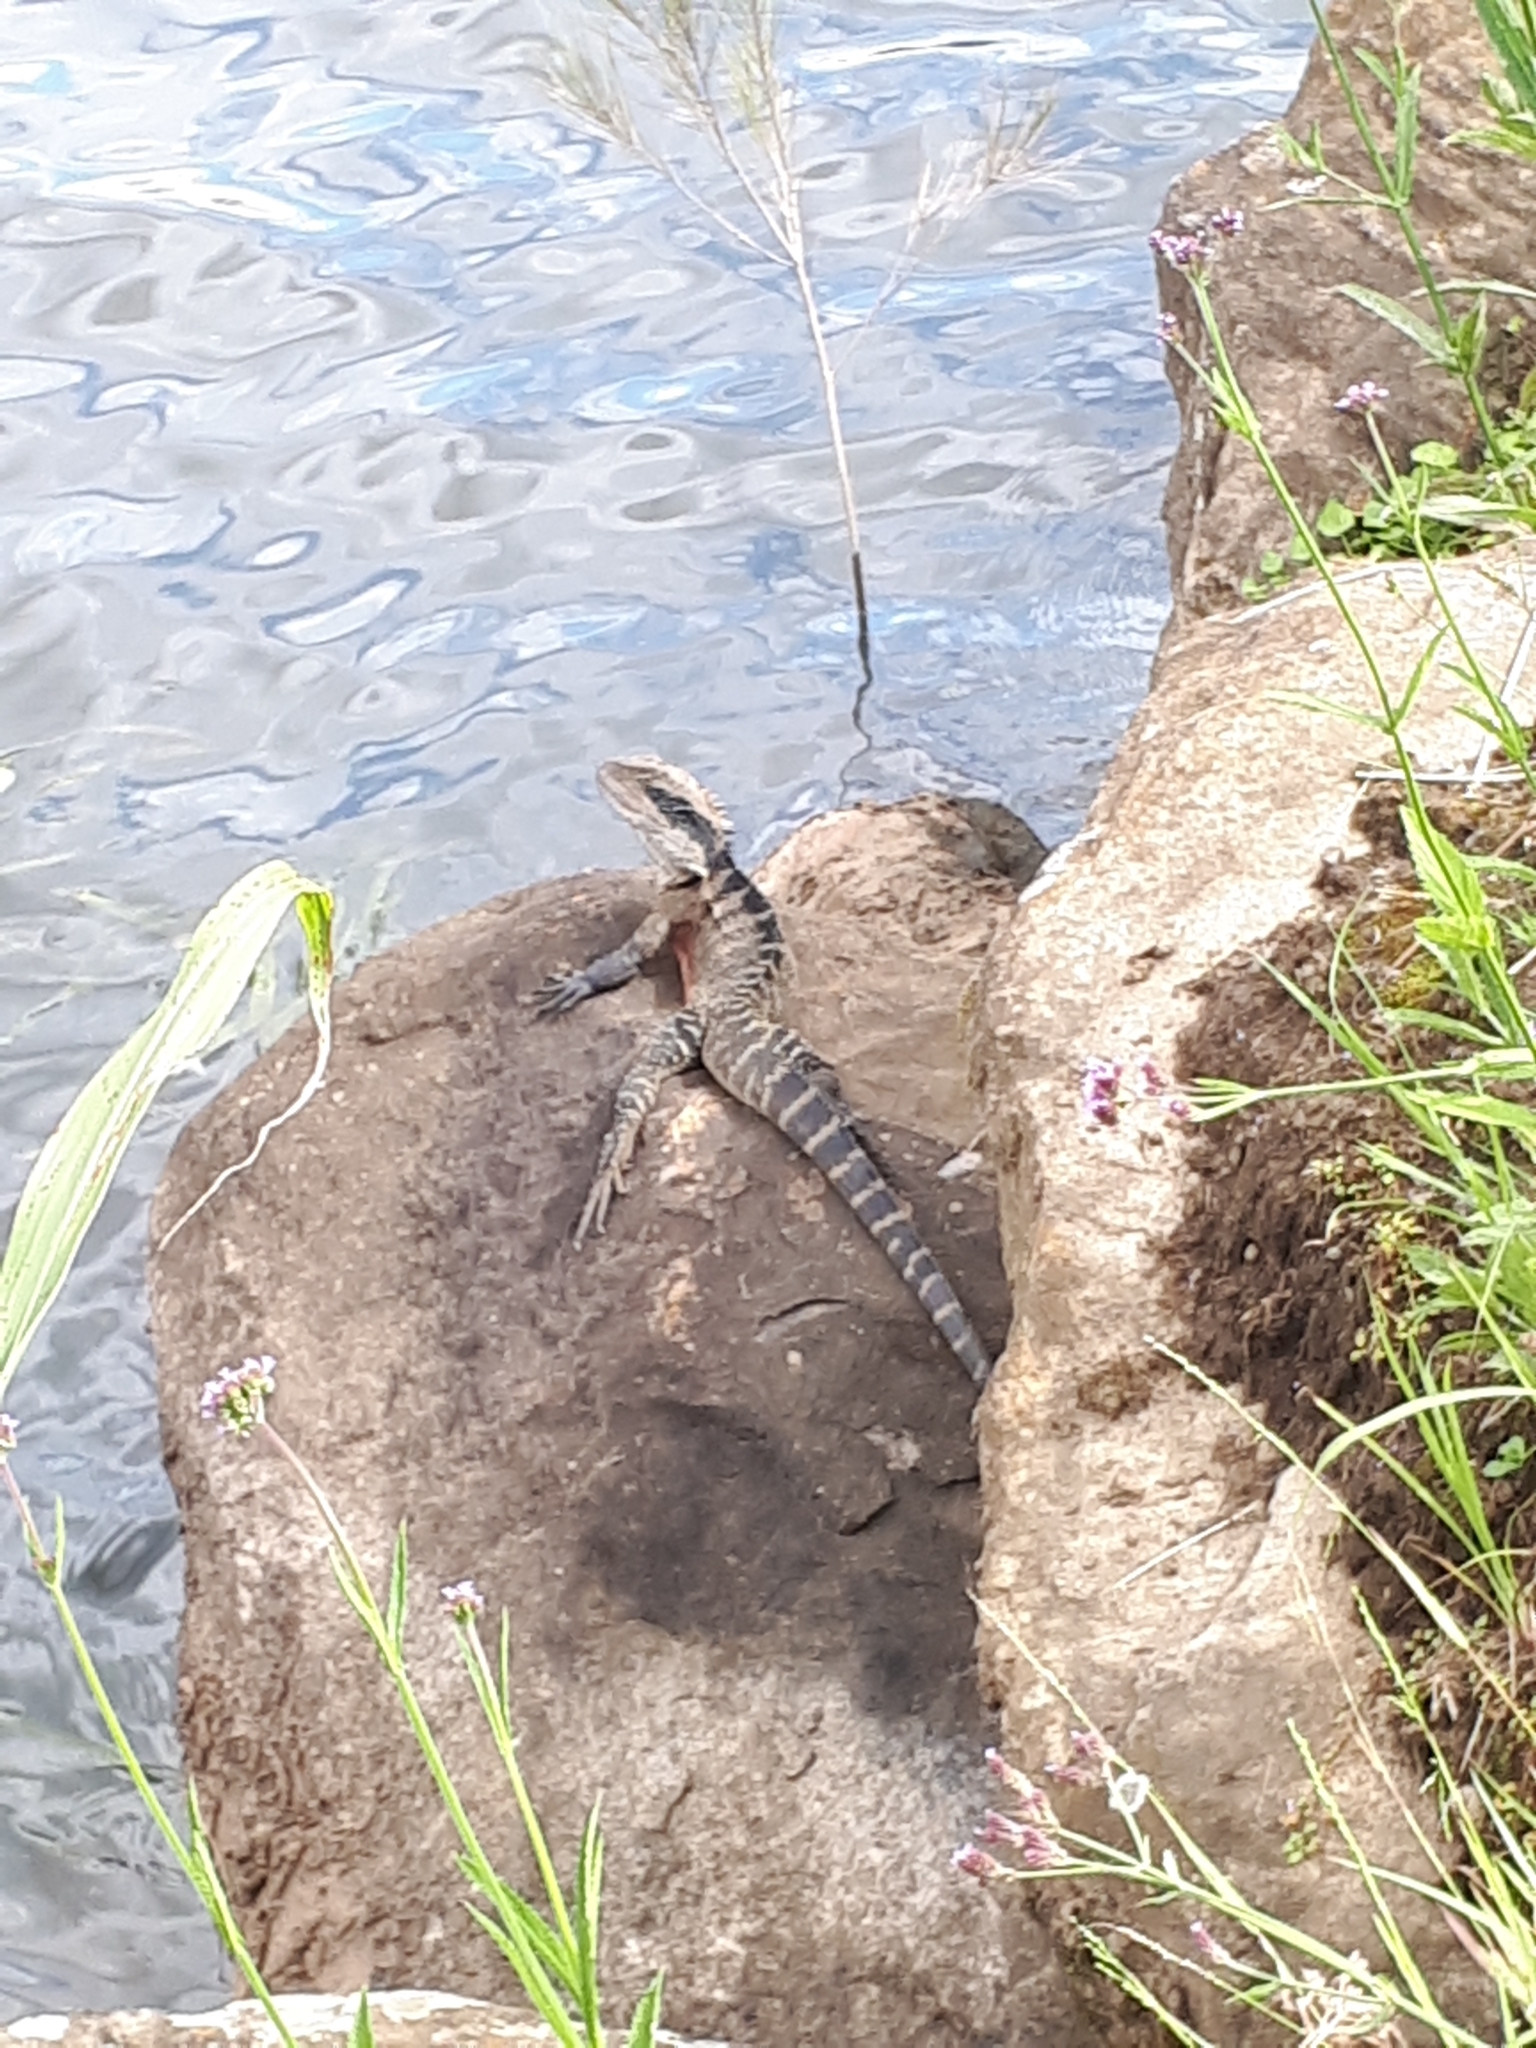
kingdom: Animalia
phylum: Chordata
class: Squamata
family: Agamidae
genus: Intellagama
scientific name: Intellagama lesueurii
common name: Eastern water dragon
